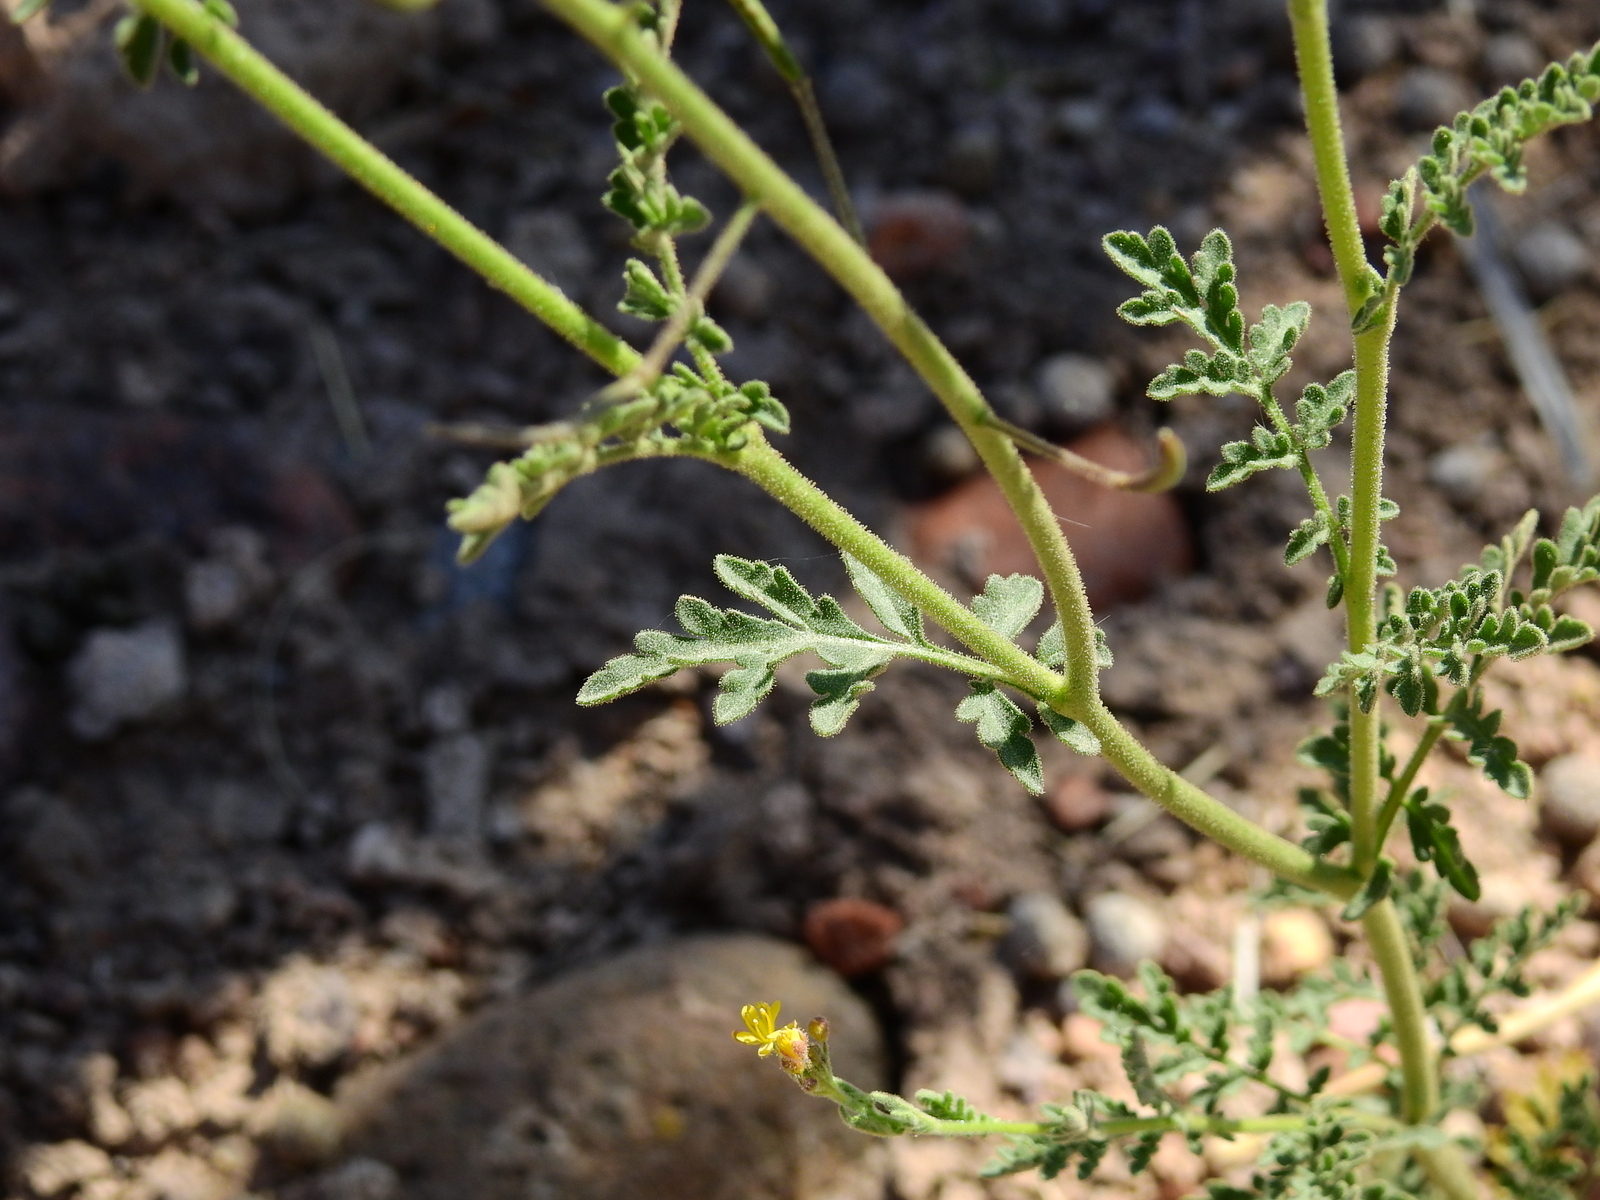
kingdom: Plantae
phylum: Tracheophyta
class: Magnoliopsida
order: Brassicales
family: Brassicaceae
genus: Descurainia
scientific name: Descurainia pimpinellifolia
